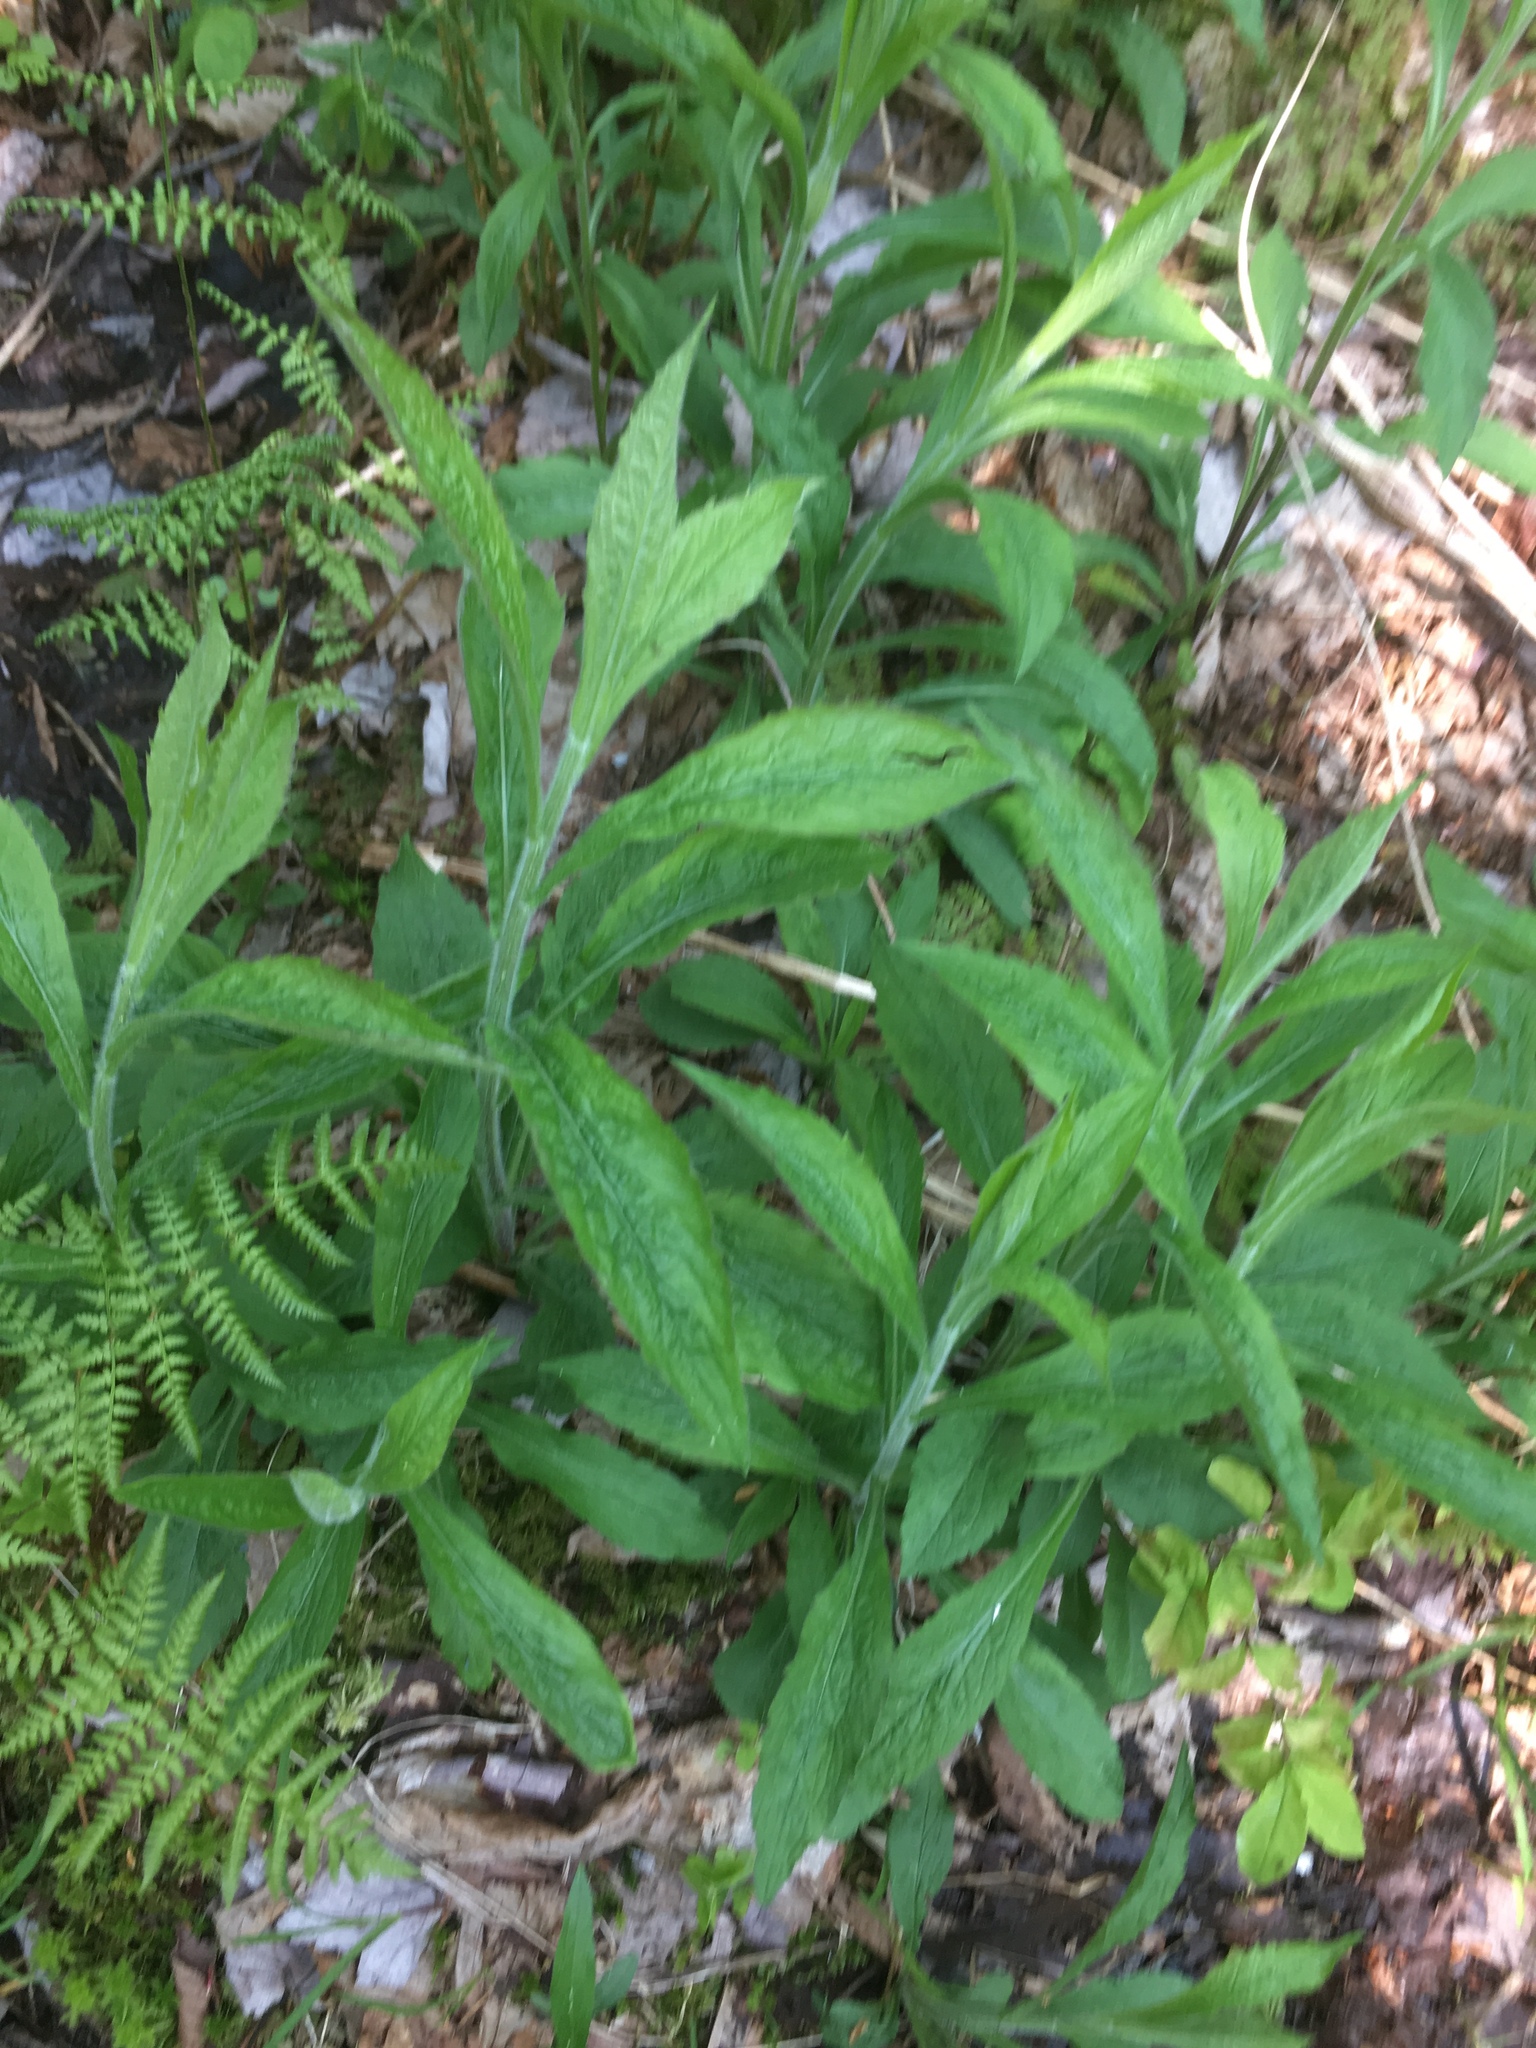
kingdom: Plantae
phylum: Tracheophyta
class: Magnoliopsida
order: Asterales
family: Asteraceae
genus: Solidago
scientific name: Solidago rugosa
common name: Rough-stemmed goldenrod
